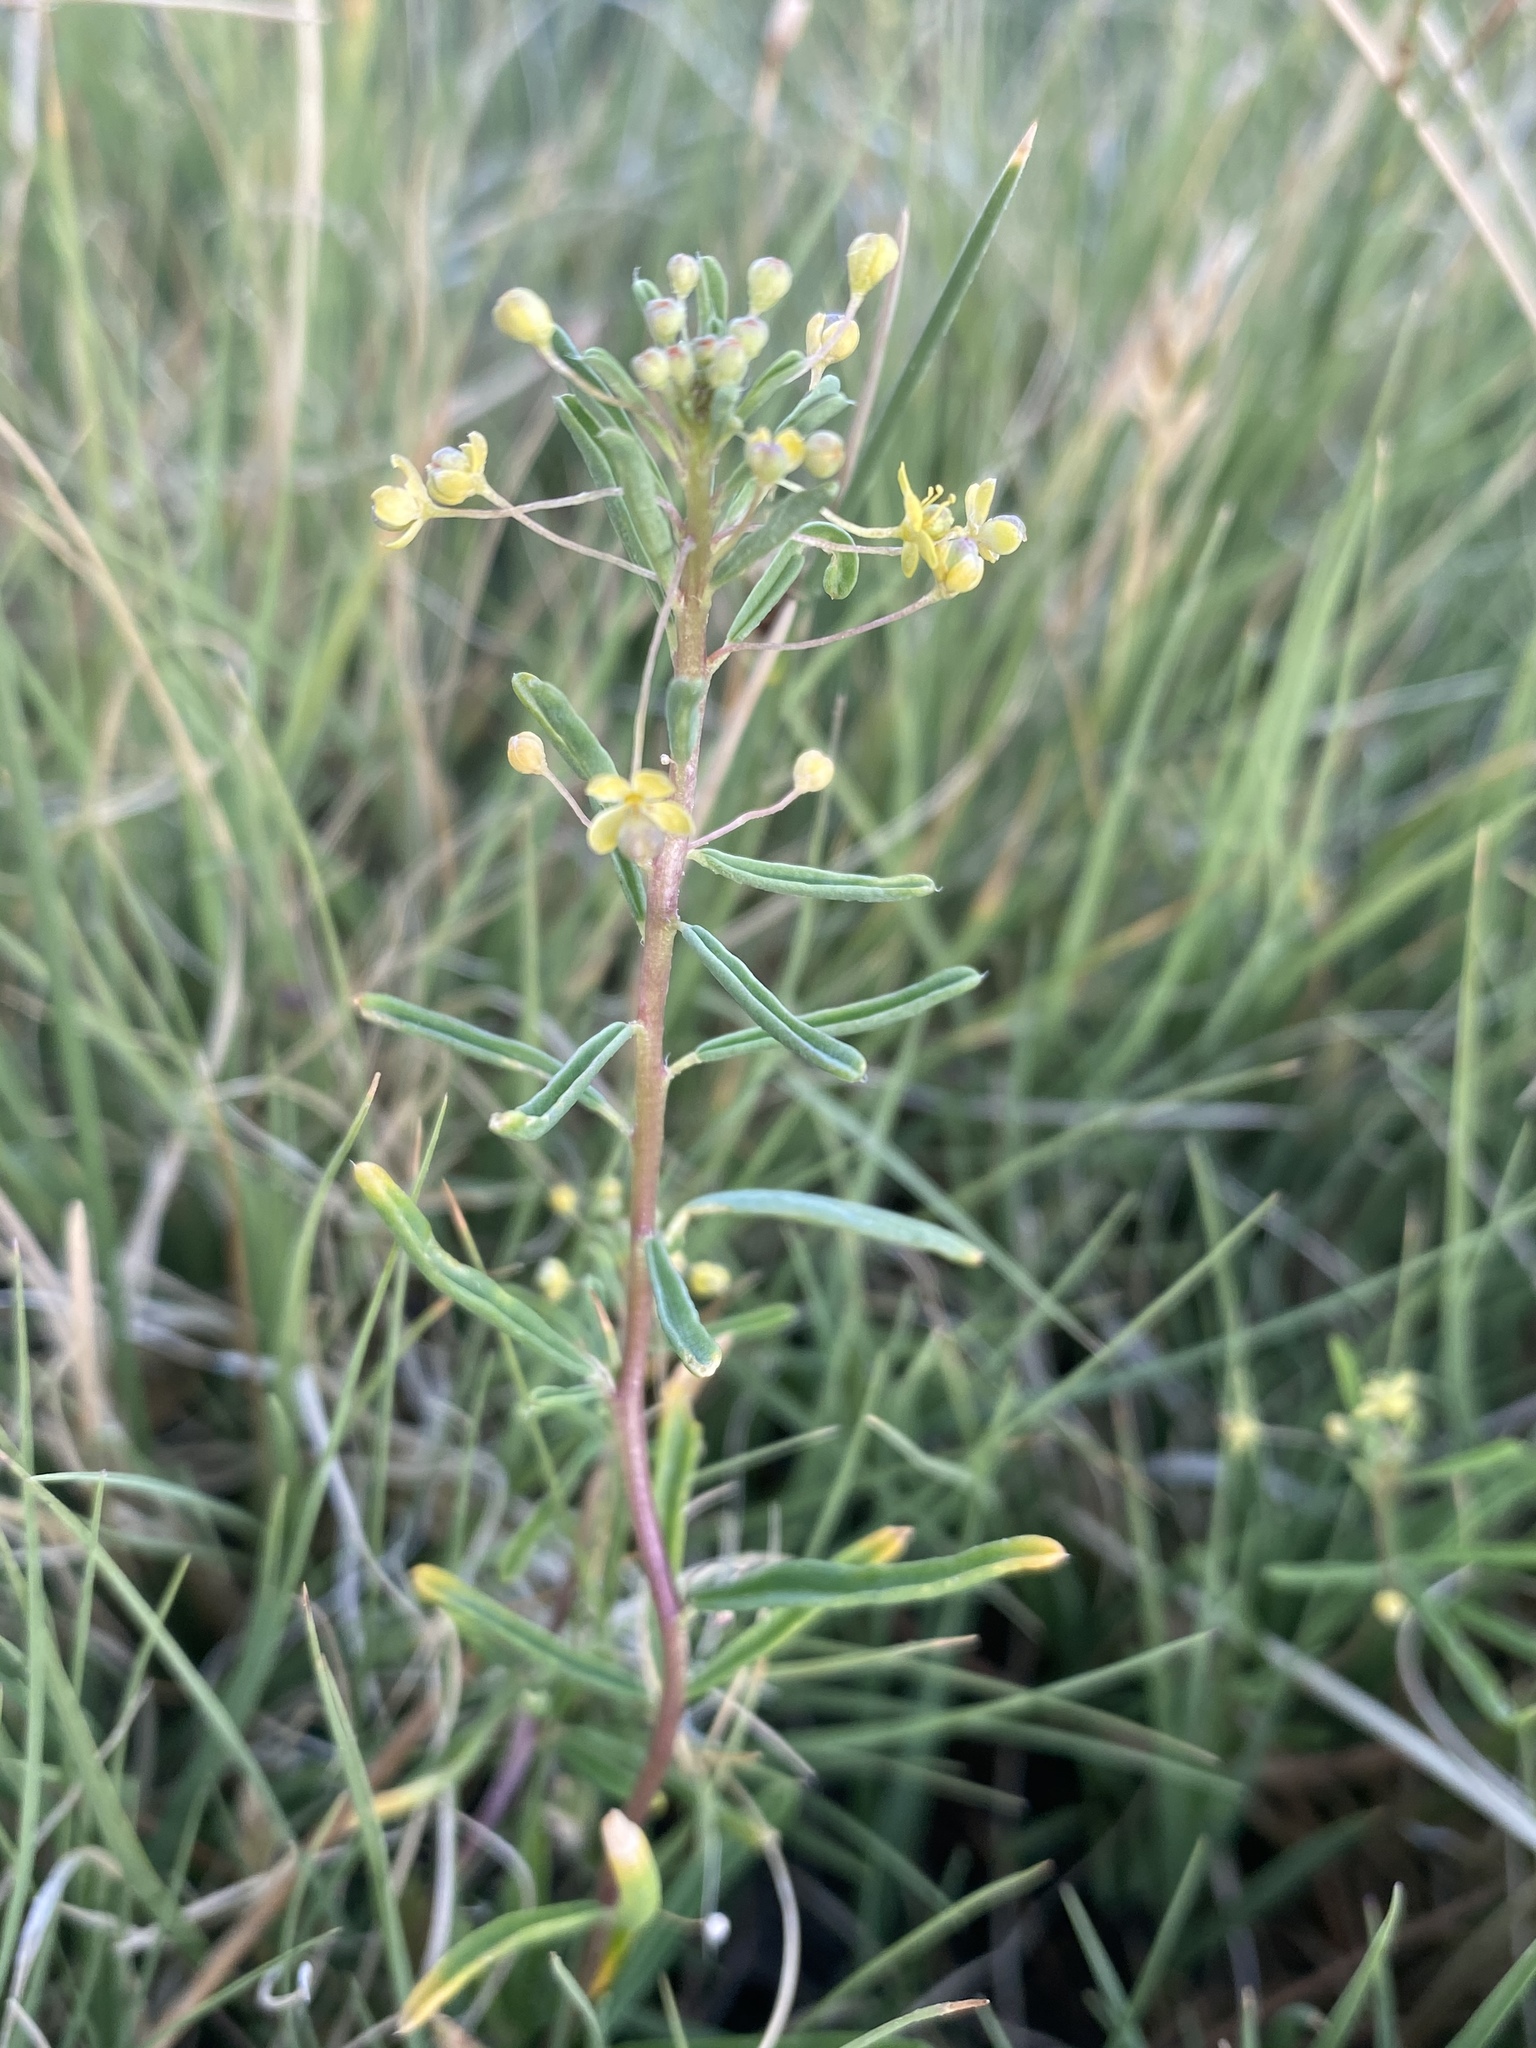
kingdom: Plantae
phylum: Tracheophyta
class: Magnoliopsida
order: Brassicales
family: Cleomaceae
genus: Cleomella
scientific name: Cleomella parviflora
